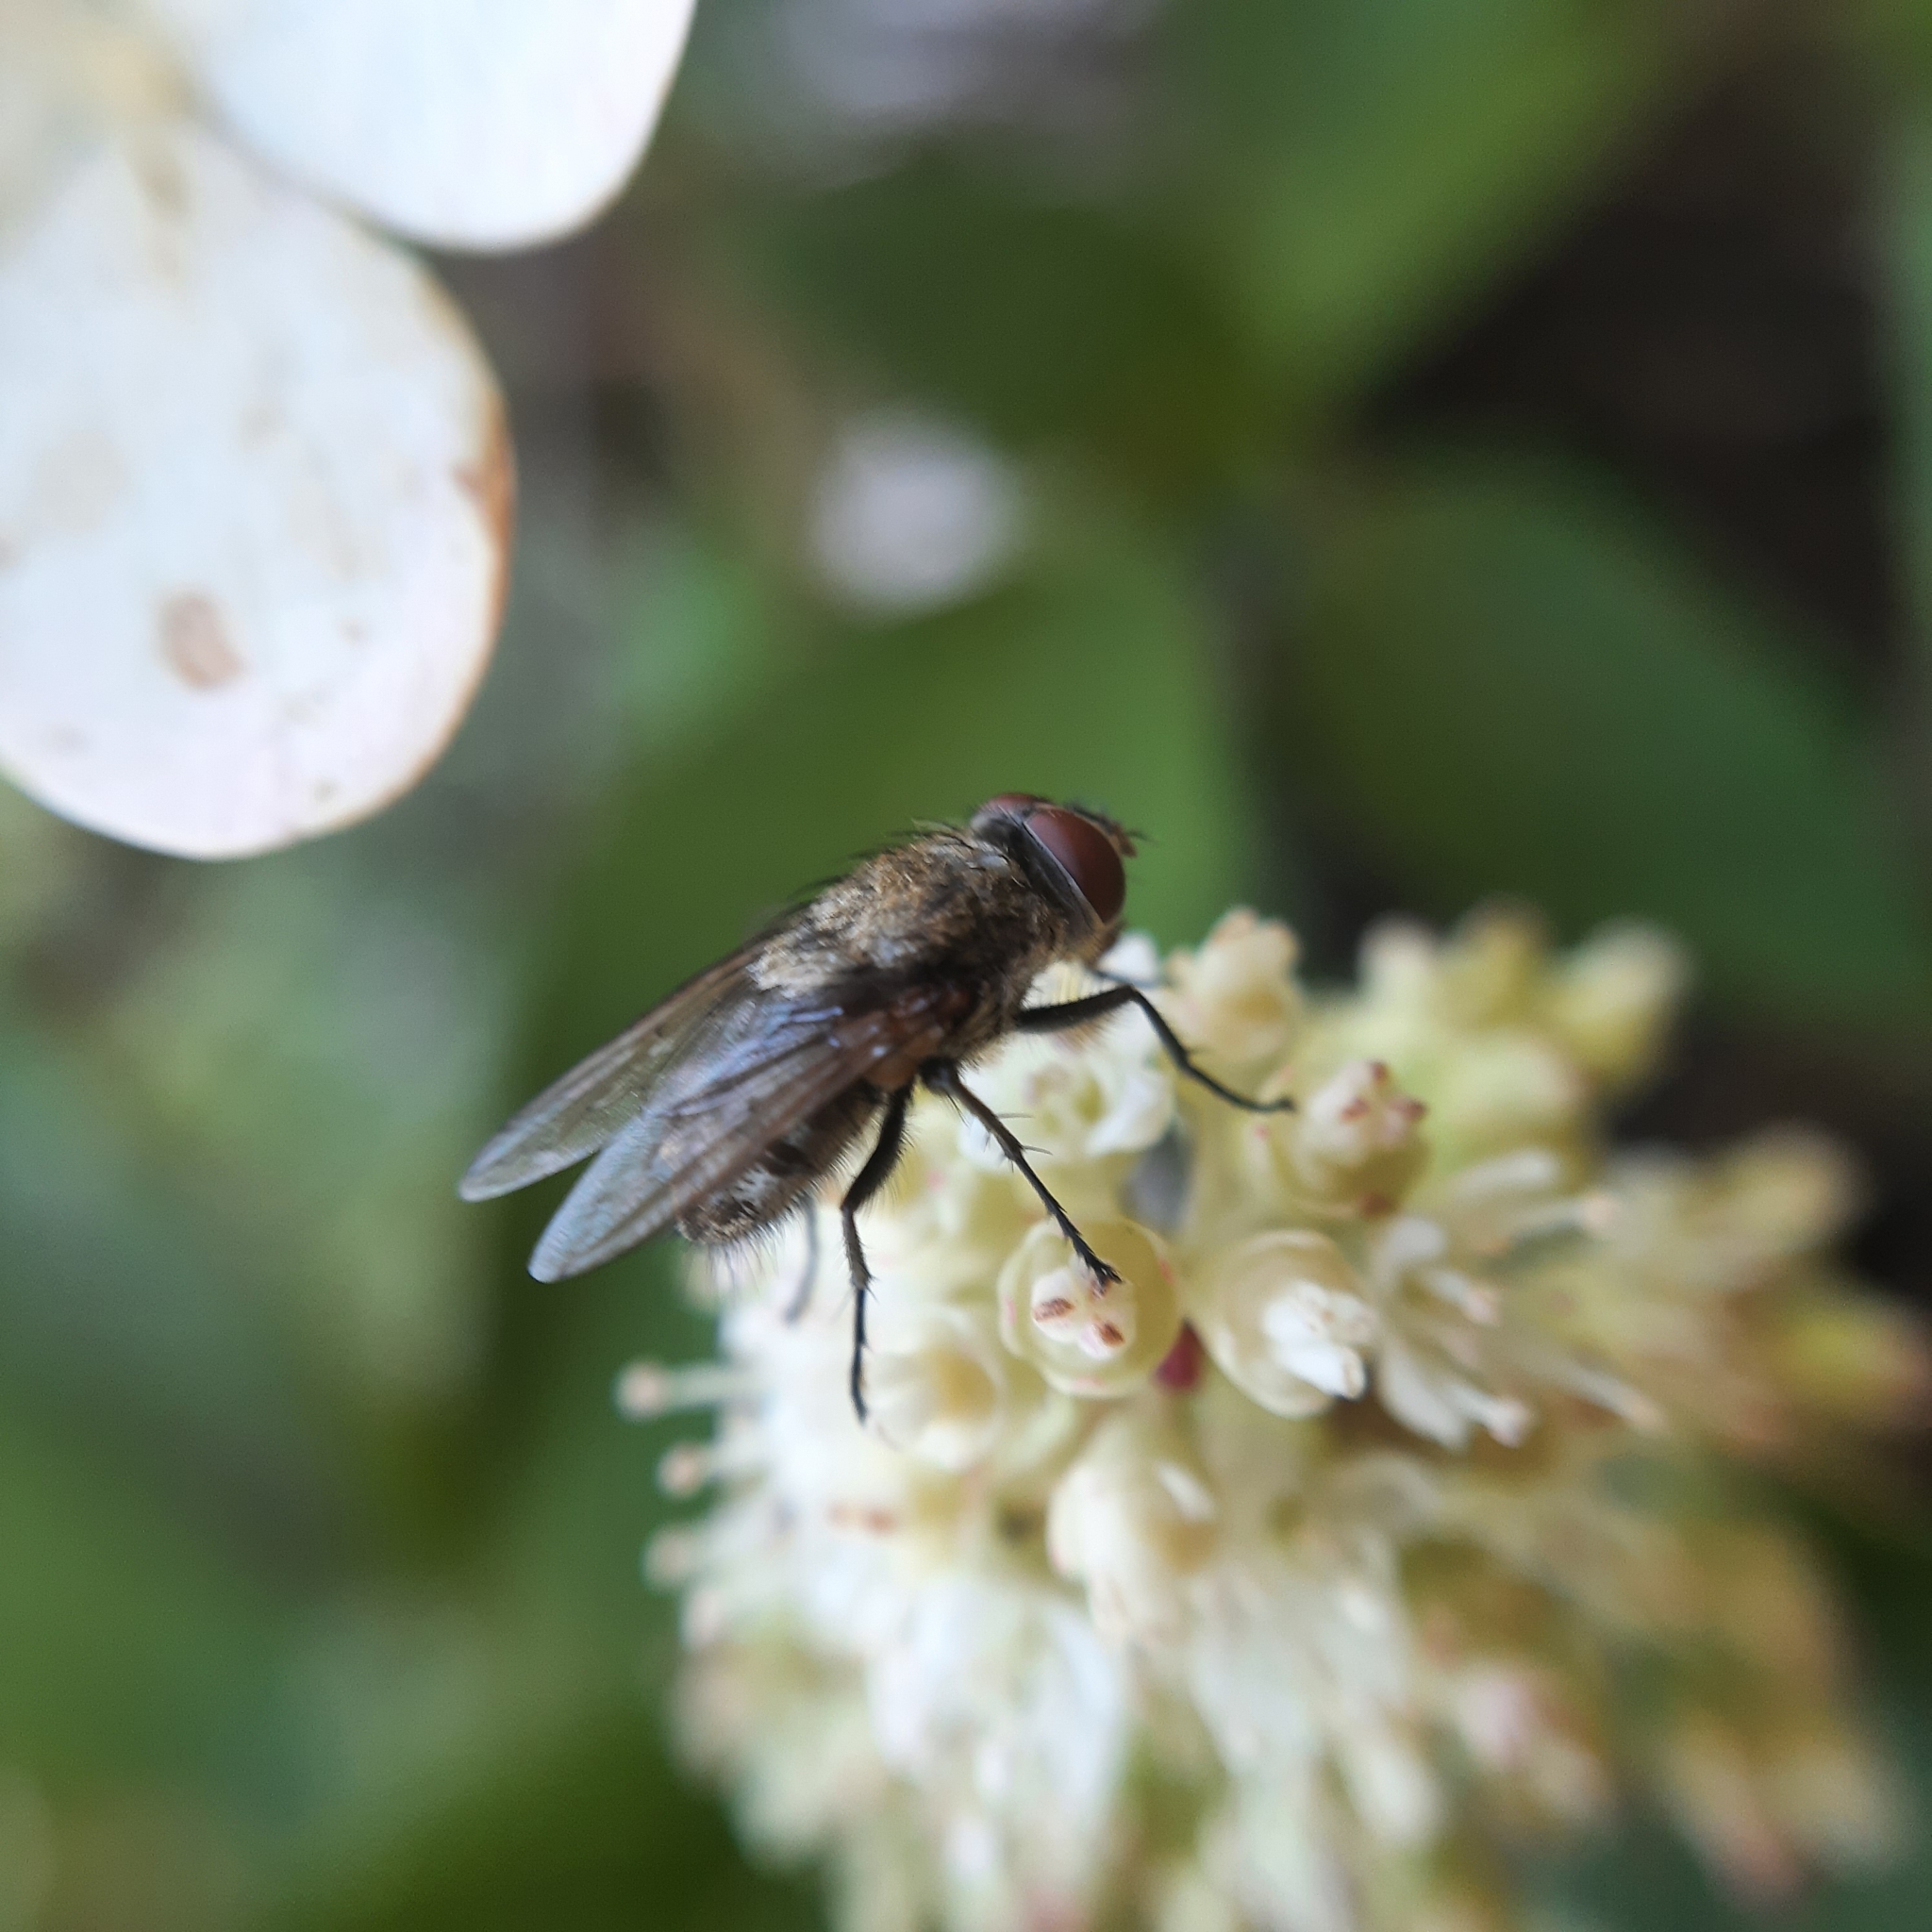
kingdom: Animalia
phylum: Arthropoda
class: Insecta
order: Diptera
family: Polleniidae
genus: Pollenia
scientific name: Pollenia
